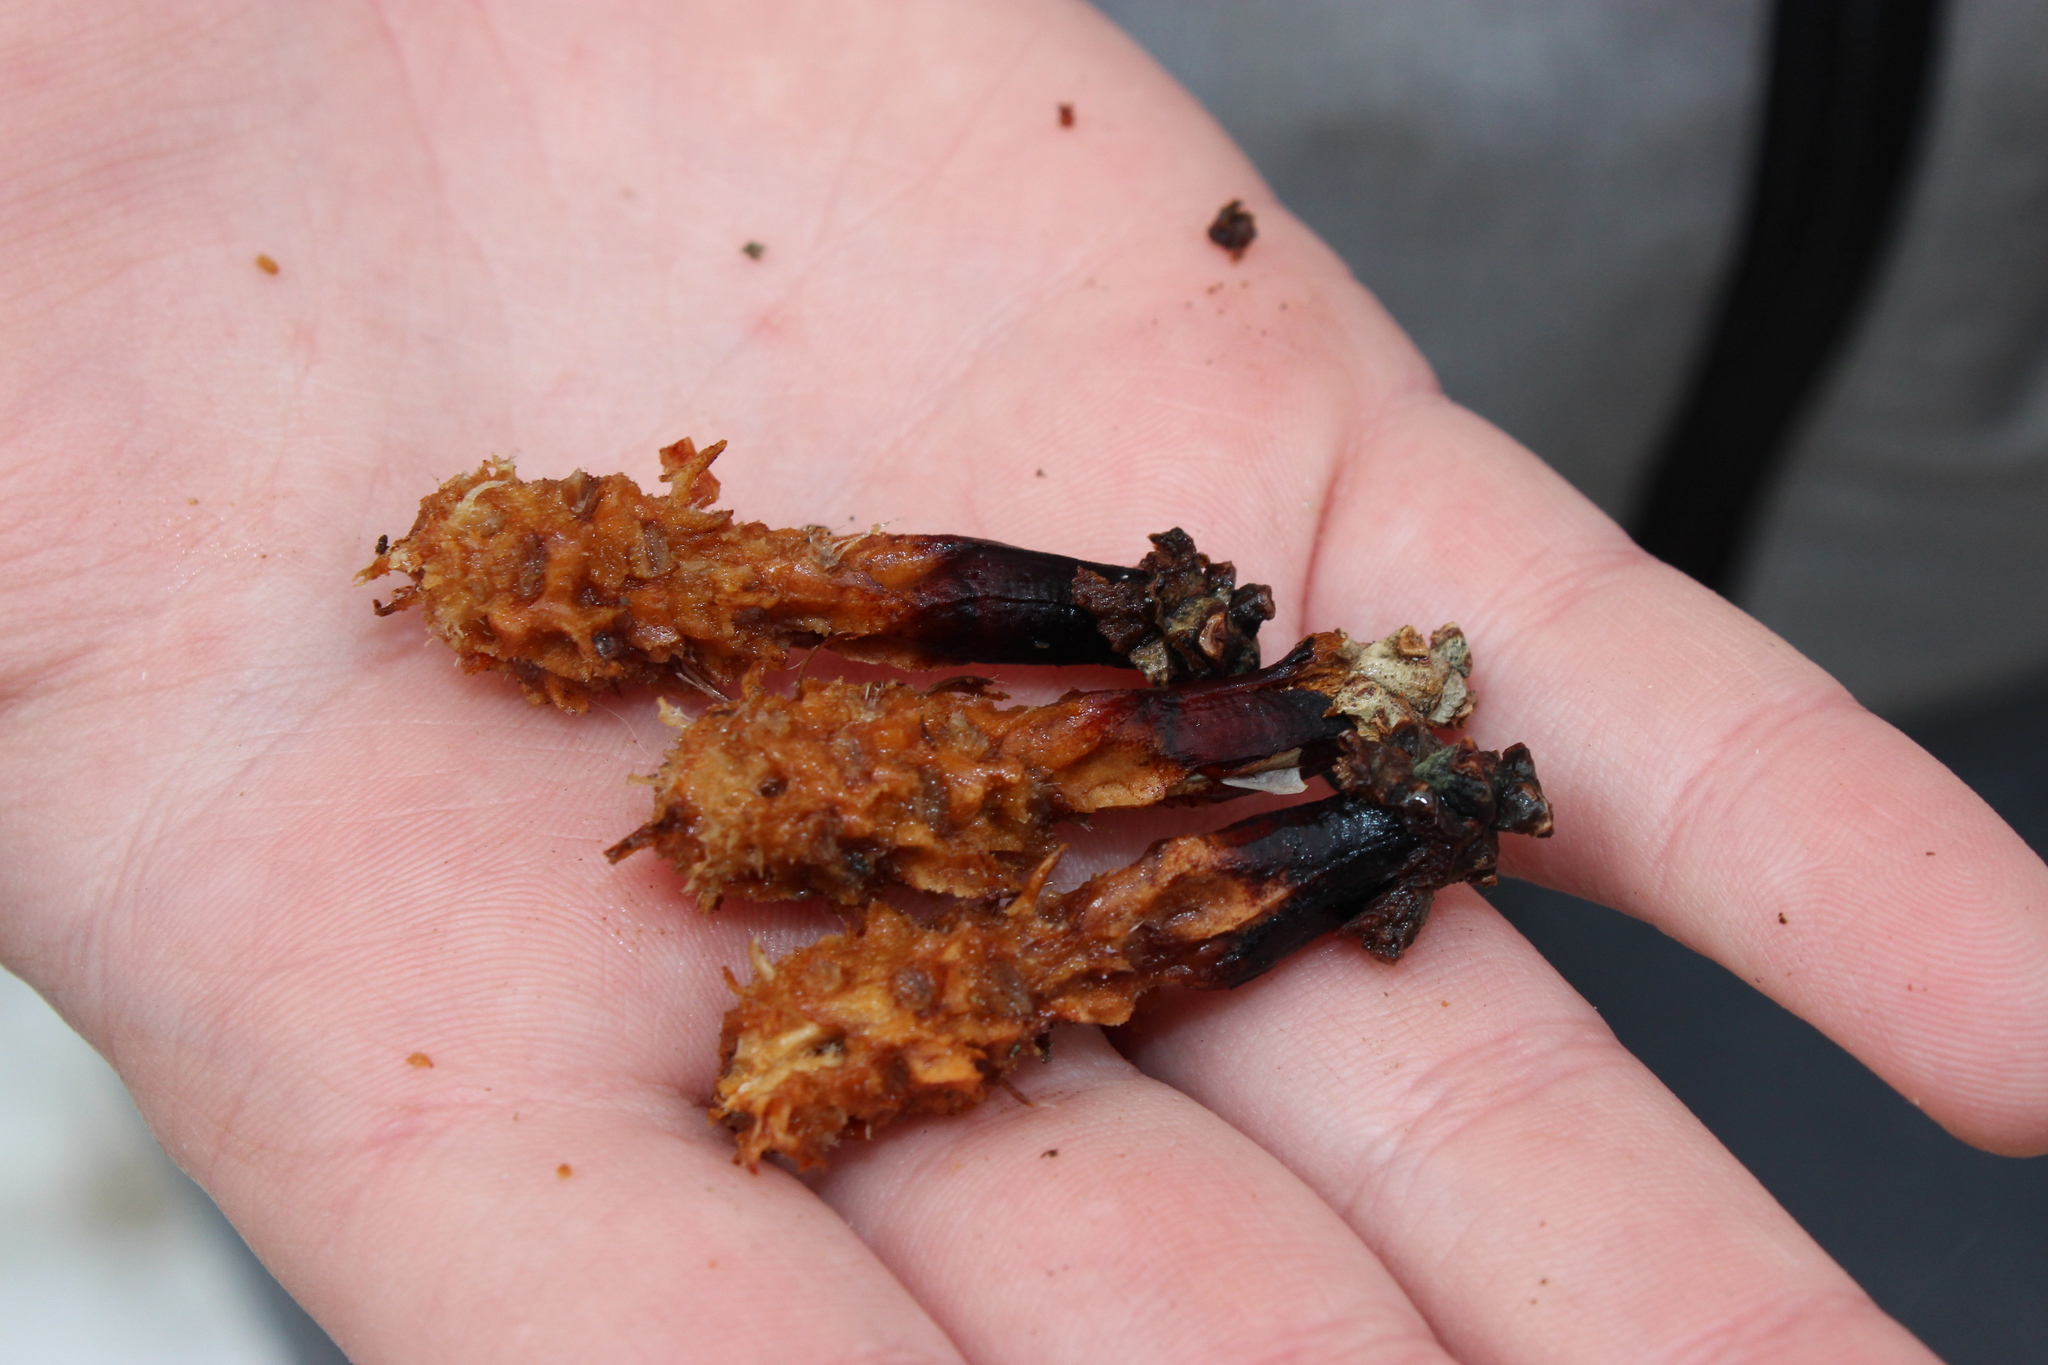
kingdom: Animalia
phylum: Chordata
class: Mammalia
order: Rodentia
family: Sciuridae
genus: Sciurus
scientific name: Sciurus vulgaris
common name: Eurasian red squirrel
